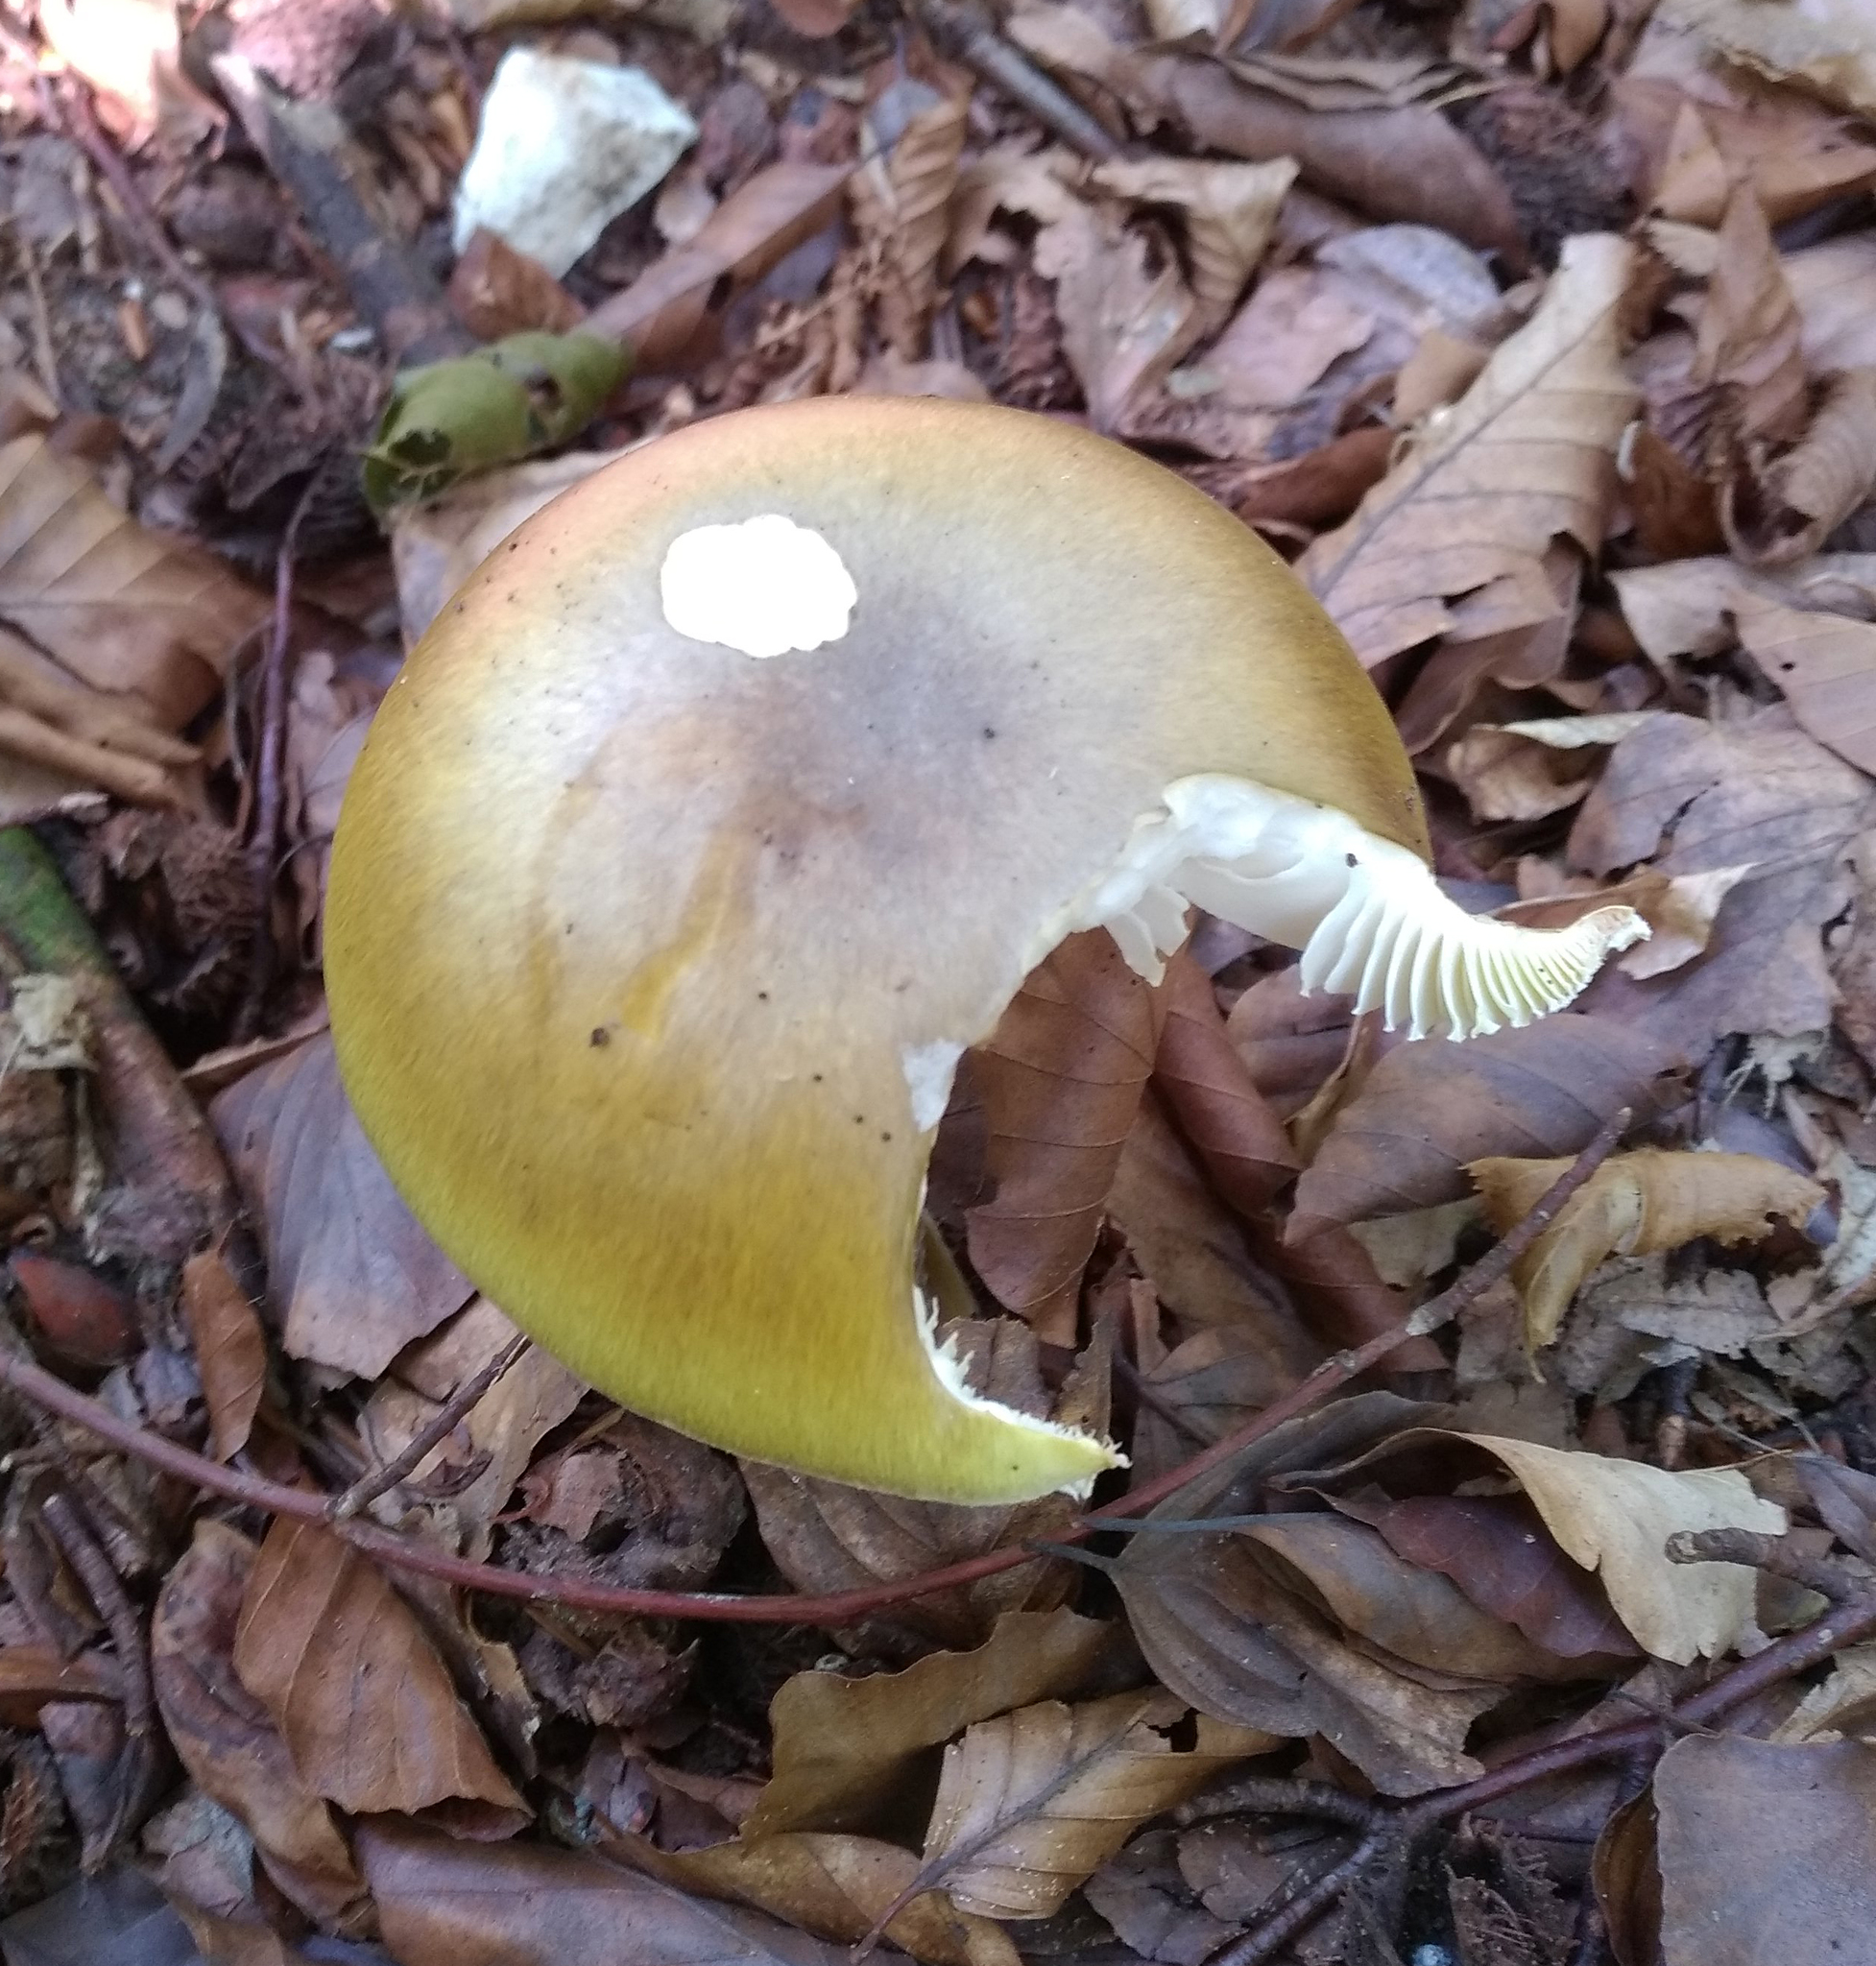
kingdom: Fungi
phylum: Basidiomycota
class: Agaricomycetes
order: Agaricales
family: Amanitaceae
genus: Amanita
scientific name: Amanita phalloides
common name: Death cap
